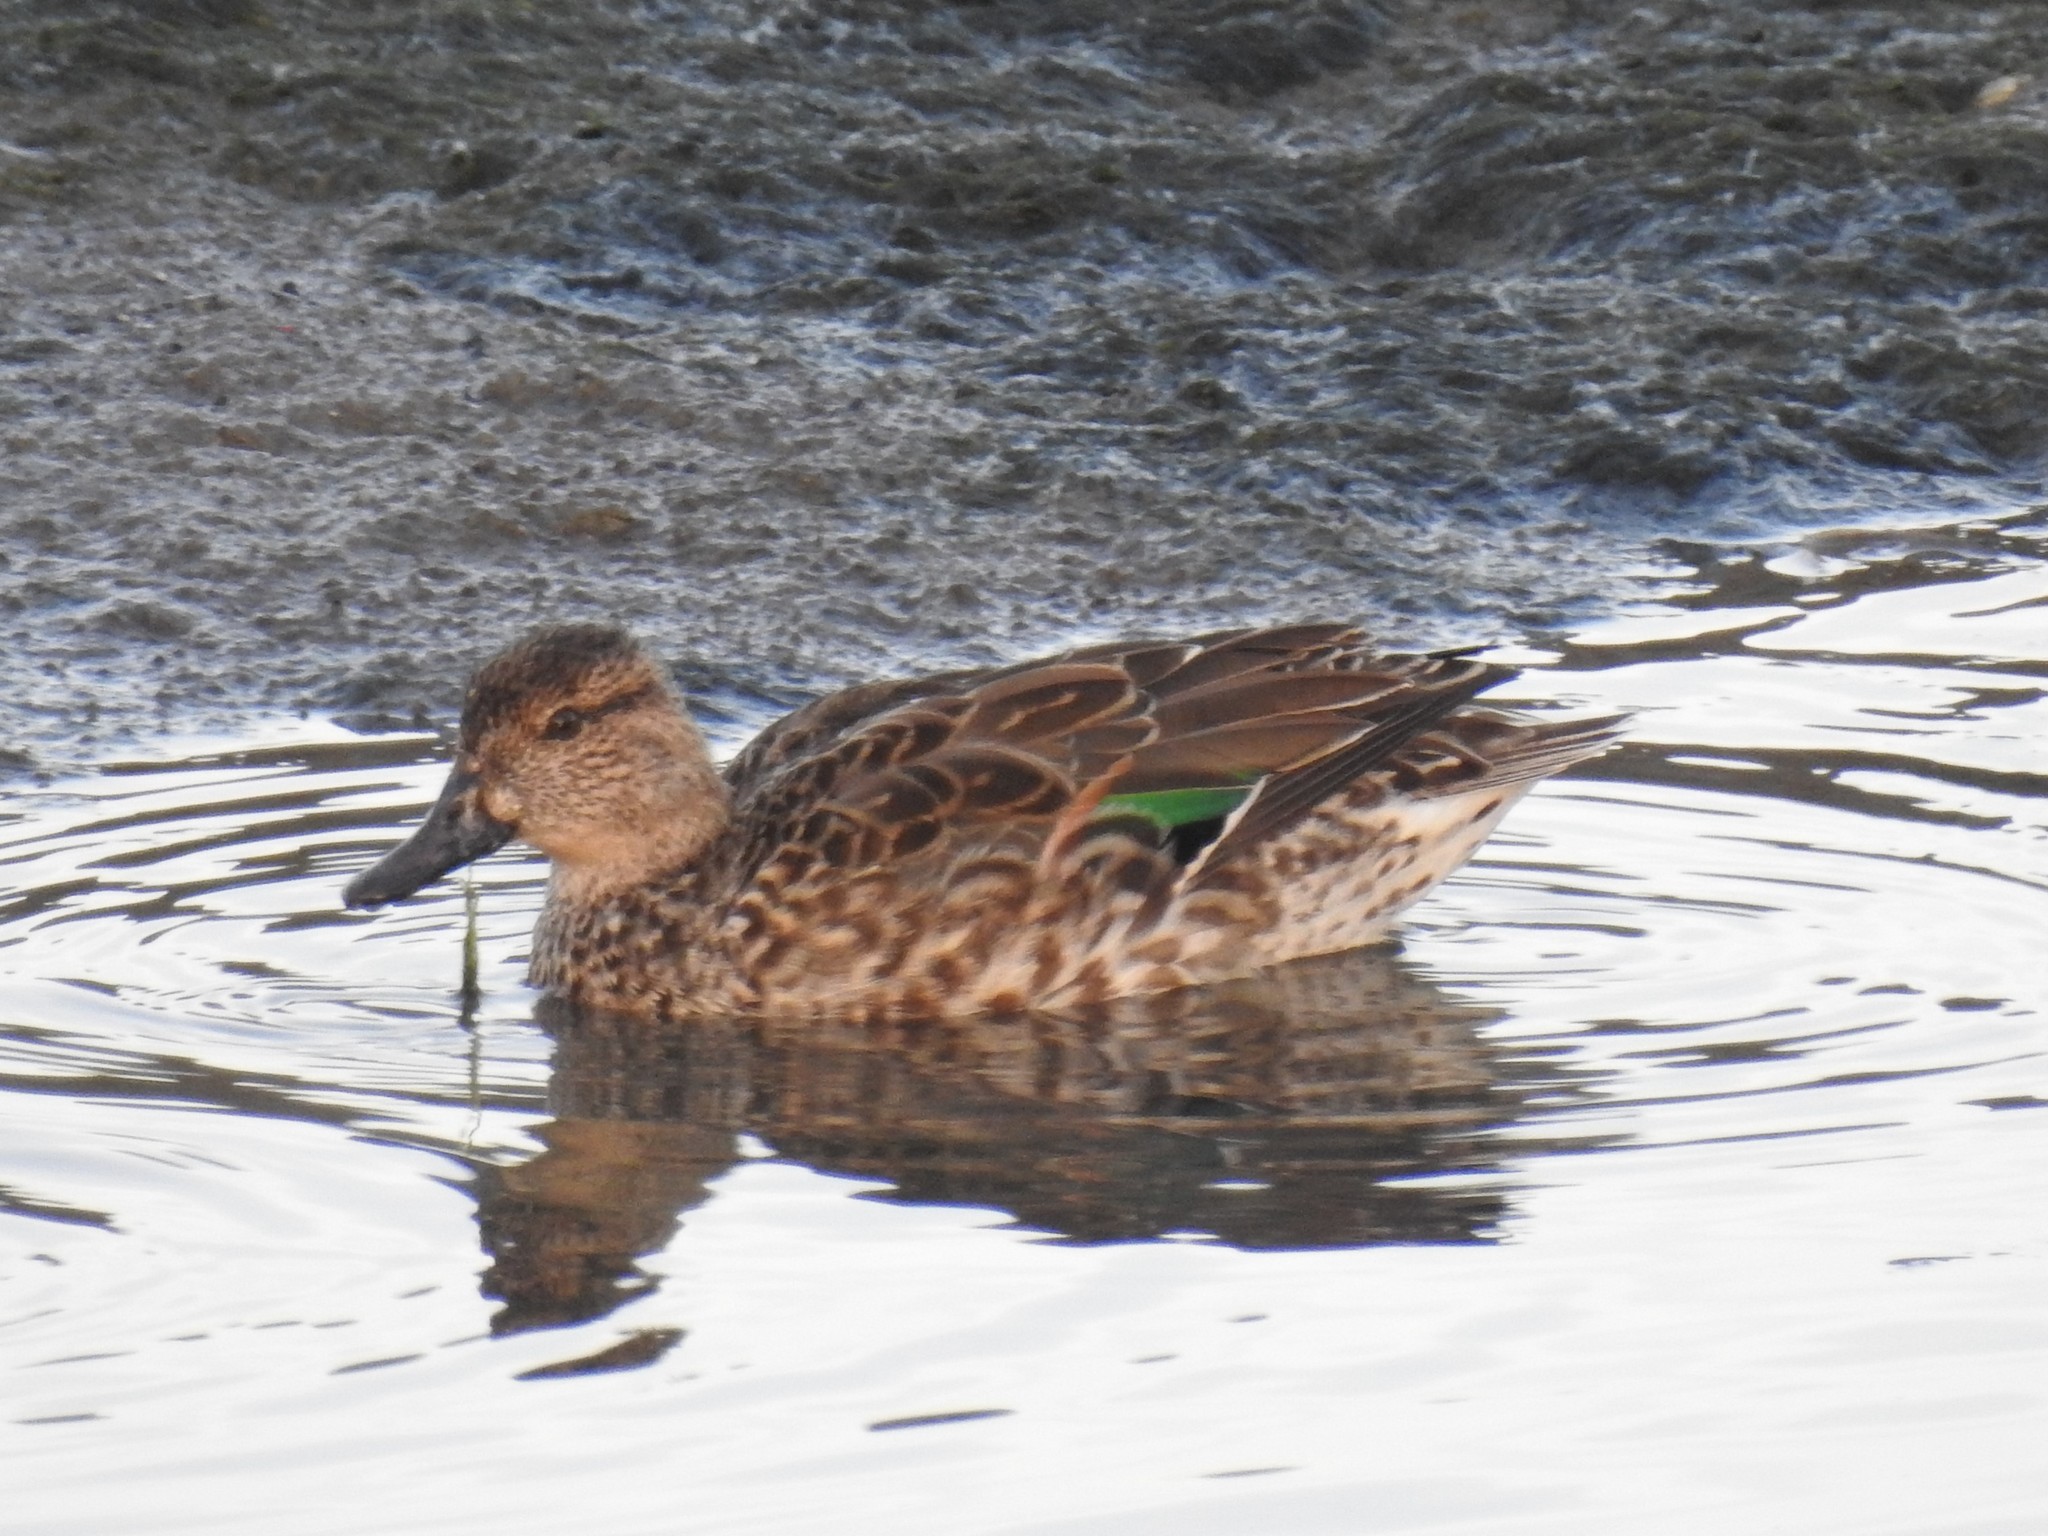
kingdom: Animalia
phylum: Chordata
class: Aves
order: Anseriformes
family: Anatidae
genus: Anas
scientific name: Anas crecca
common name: Eurasian teal
